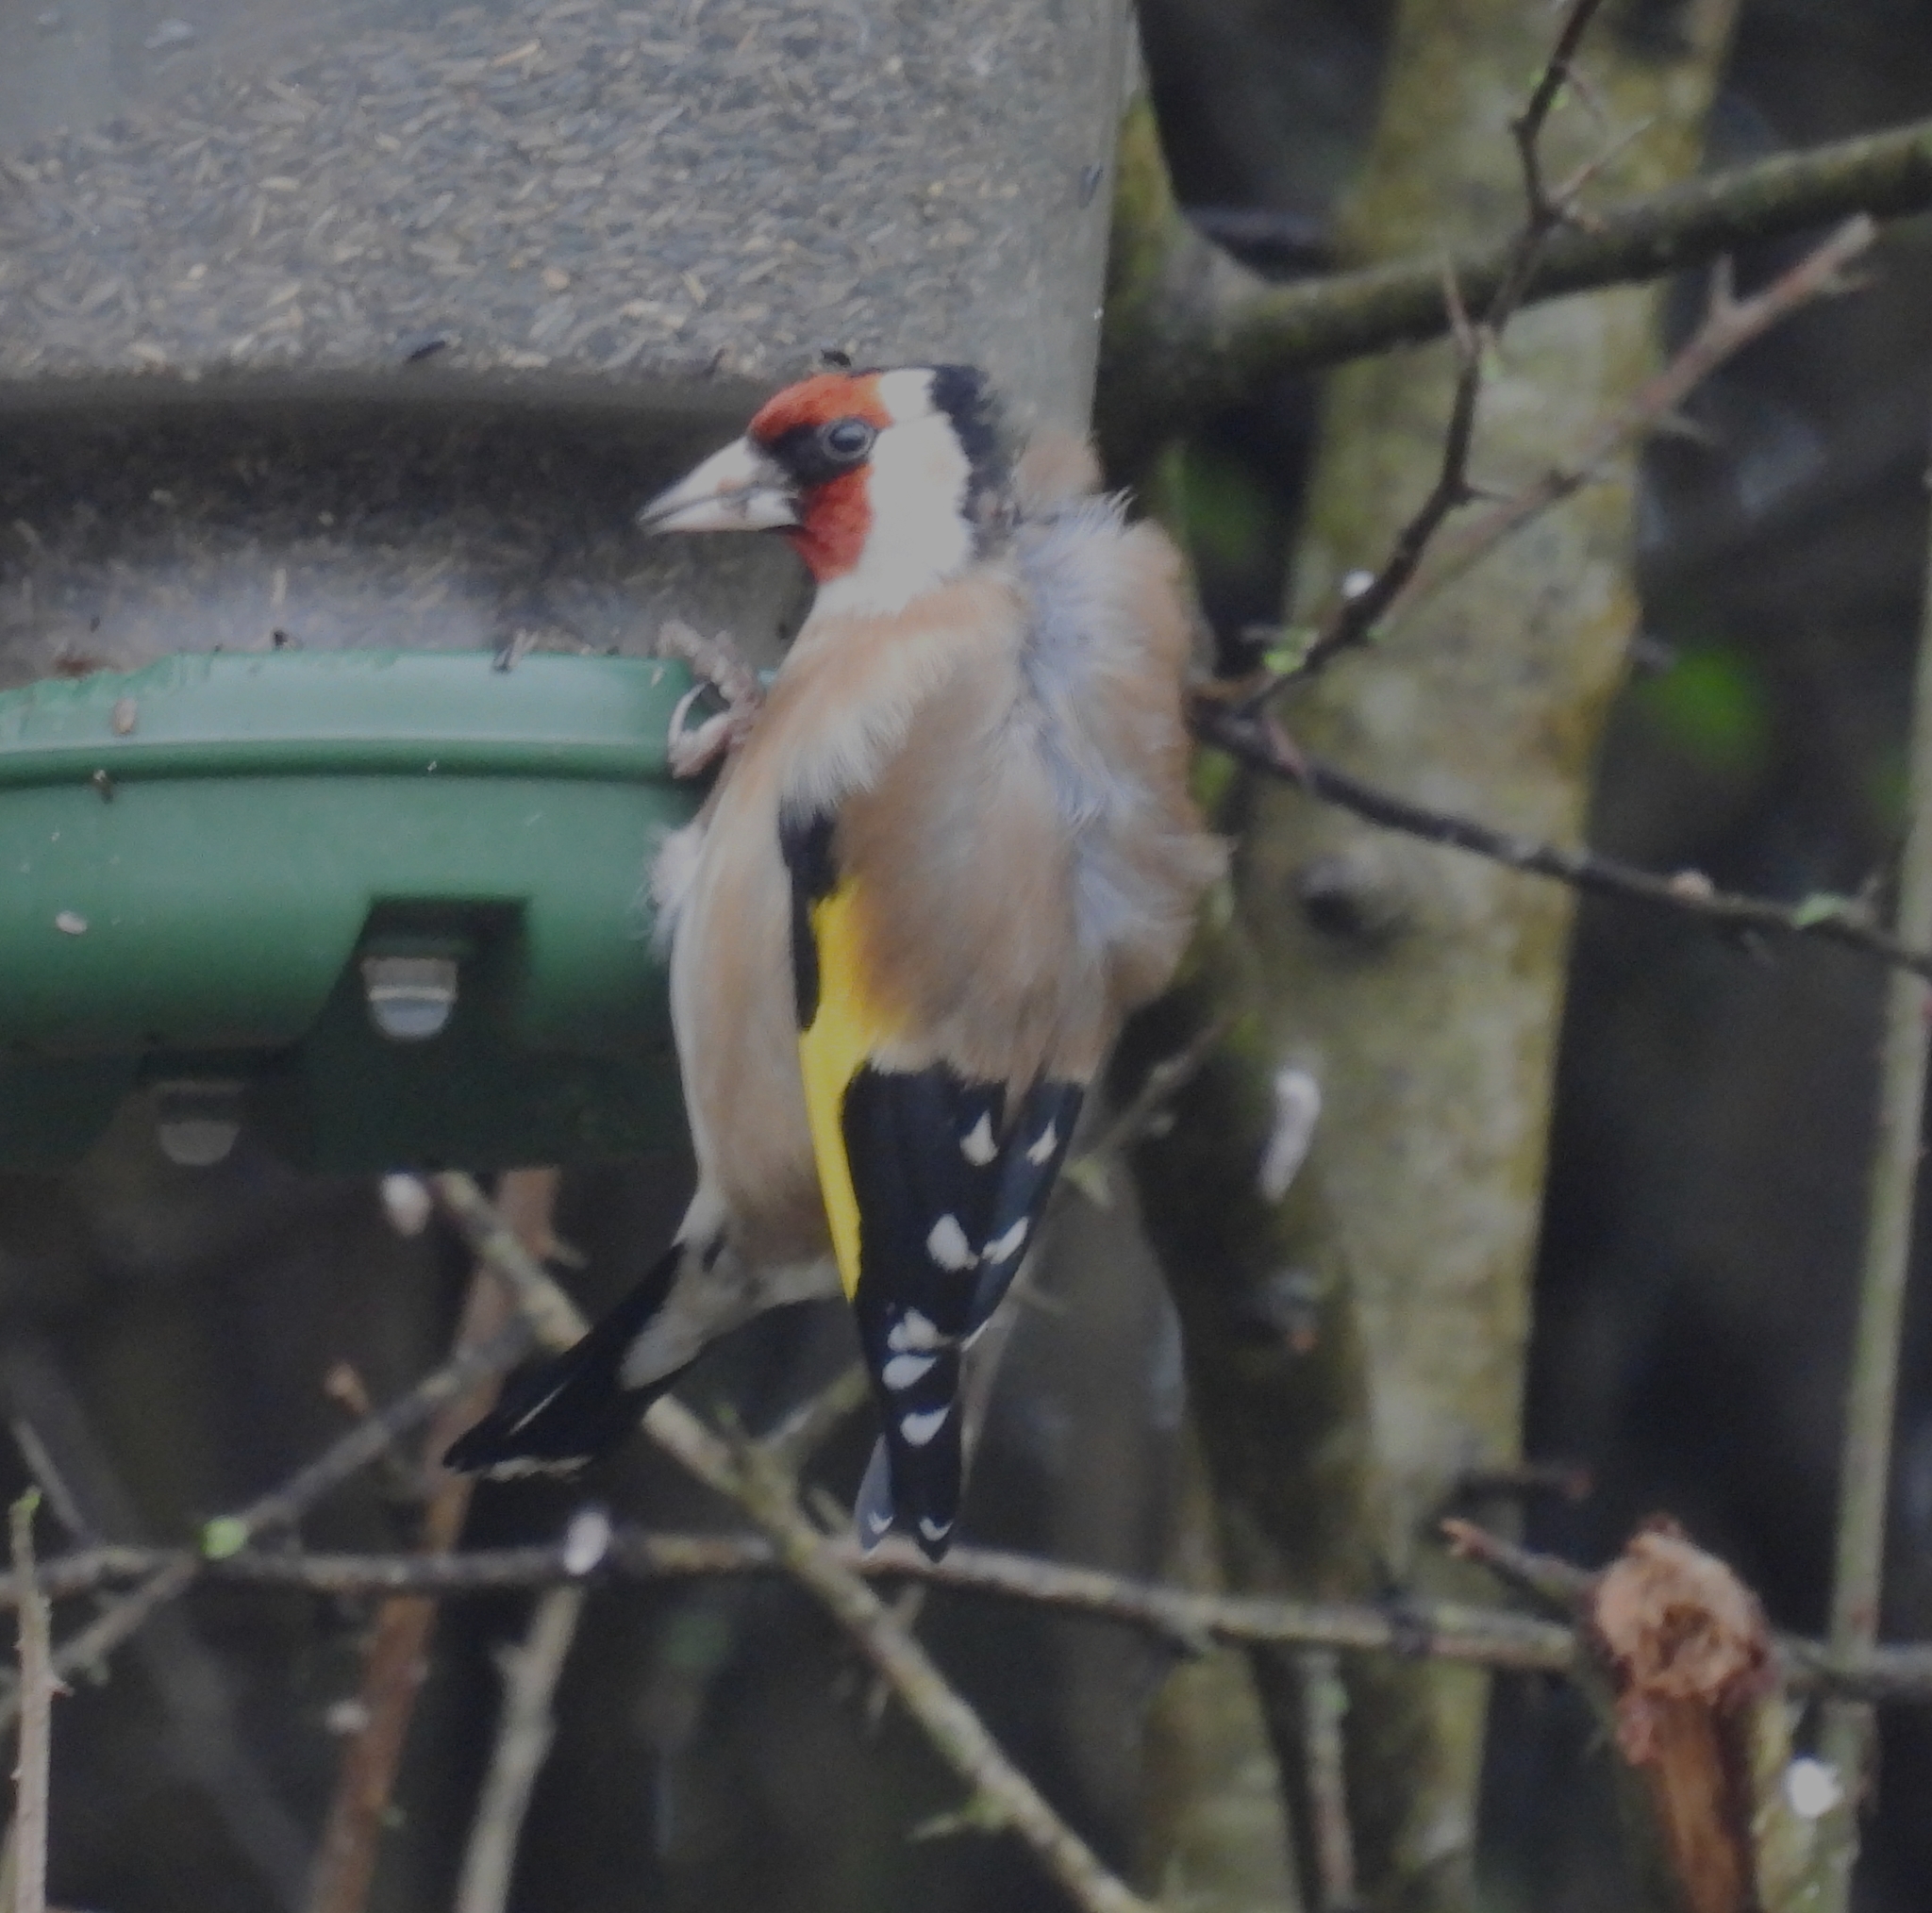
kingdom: Animalia
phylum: Chordata
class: Aves
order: Passeriformes
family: Fringillidae
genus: Carduelis
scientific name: Carduelis carduelis
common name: European goldfinch
